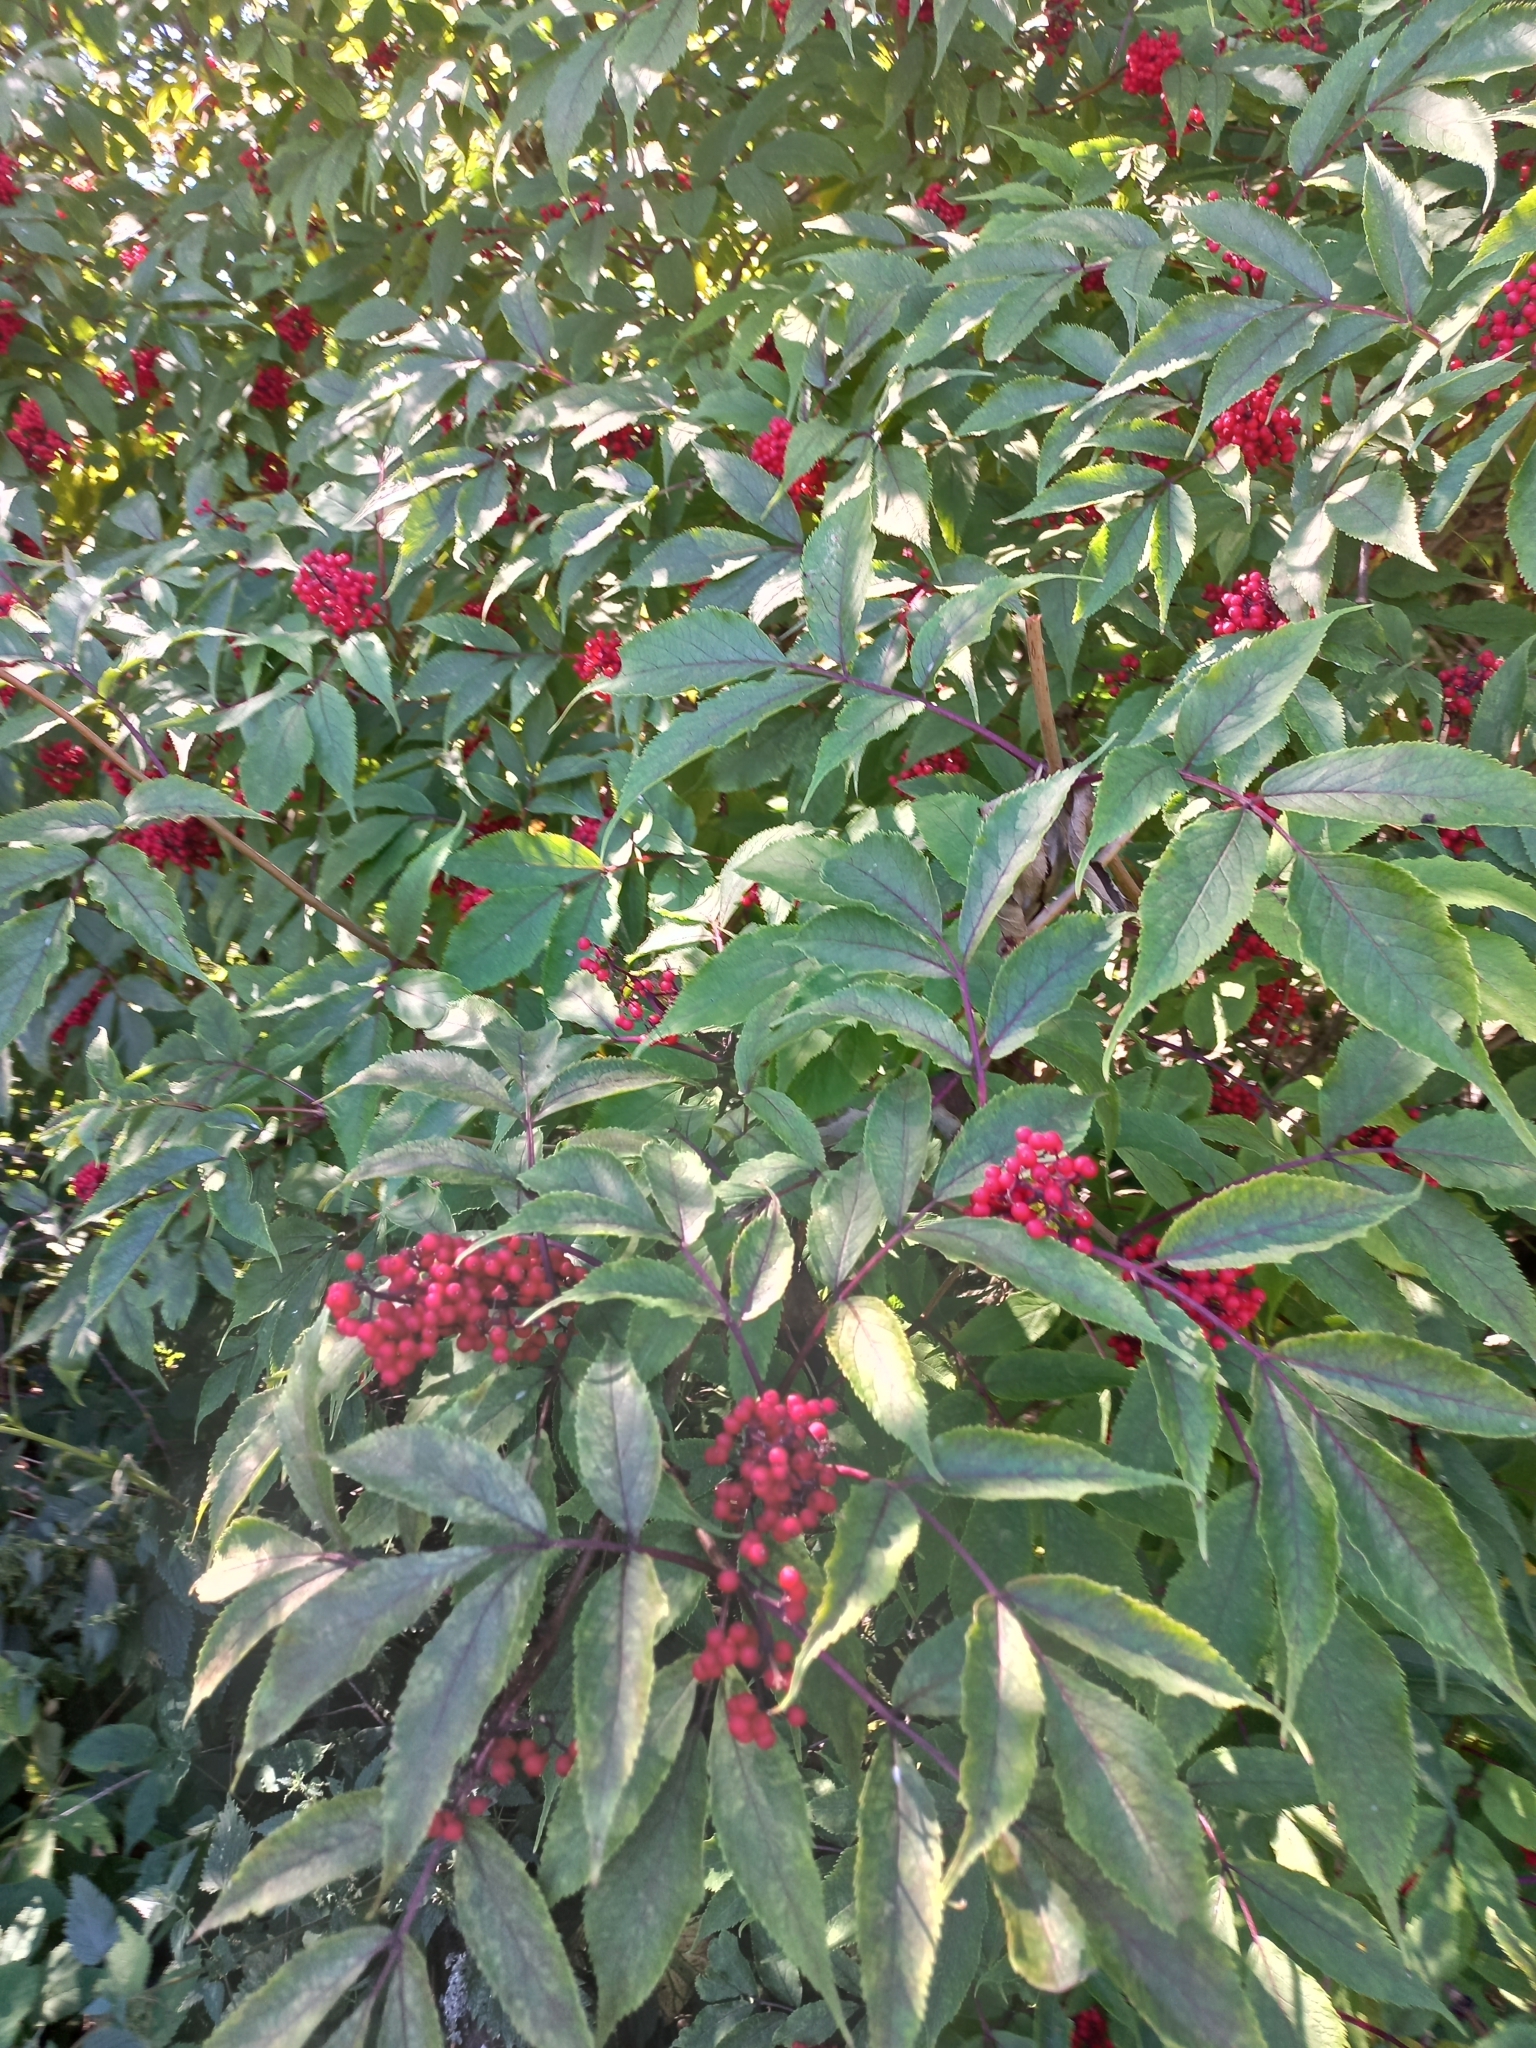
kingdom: Plantae
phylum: Tracheophyta
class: Magnoliopsida
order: Dipsacales
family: Viburnaceae
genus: Sambucus
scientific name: Sambucus racemosa
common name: Red-berried elder
